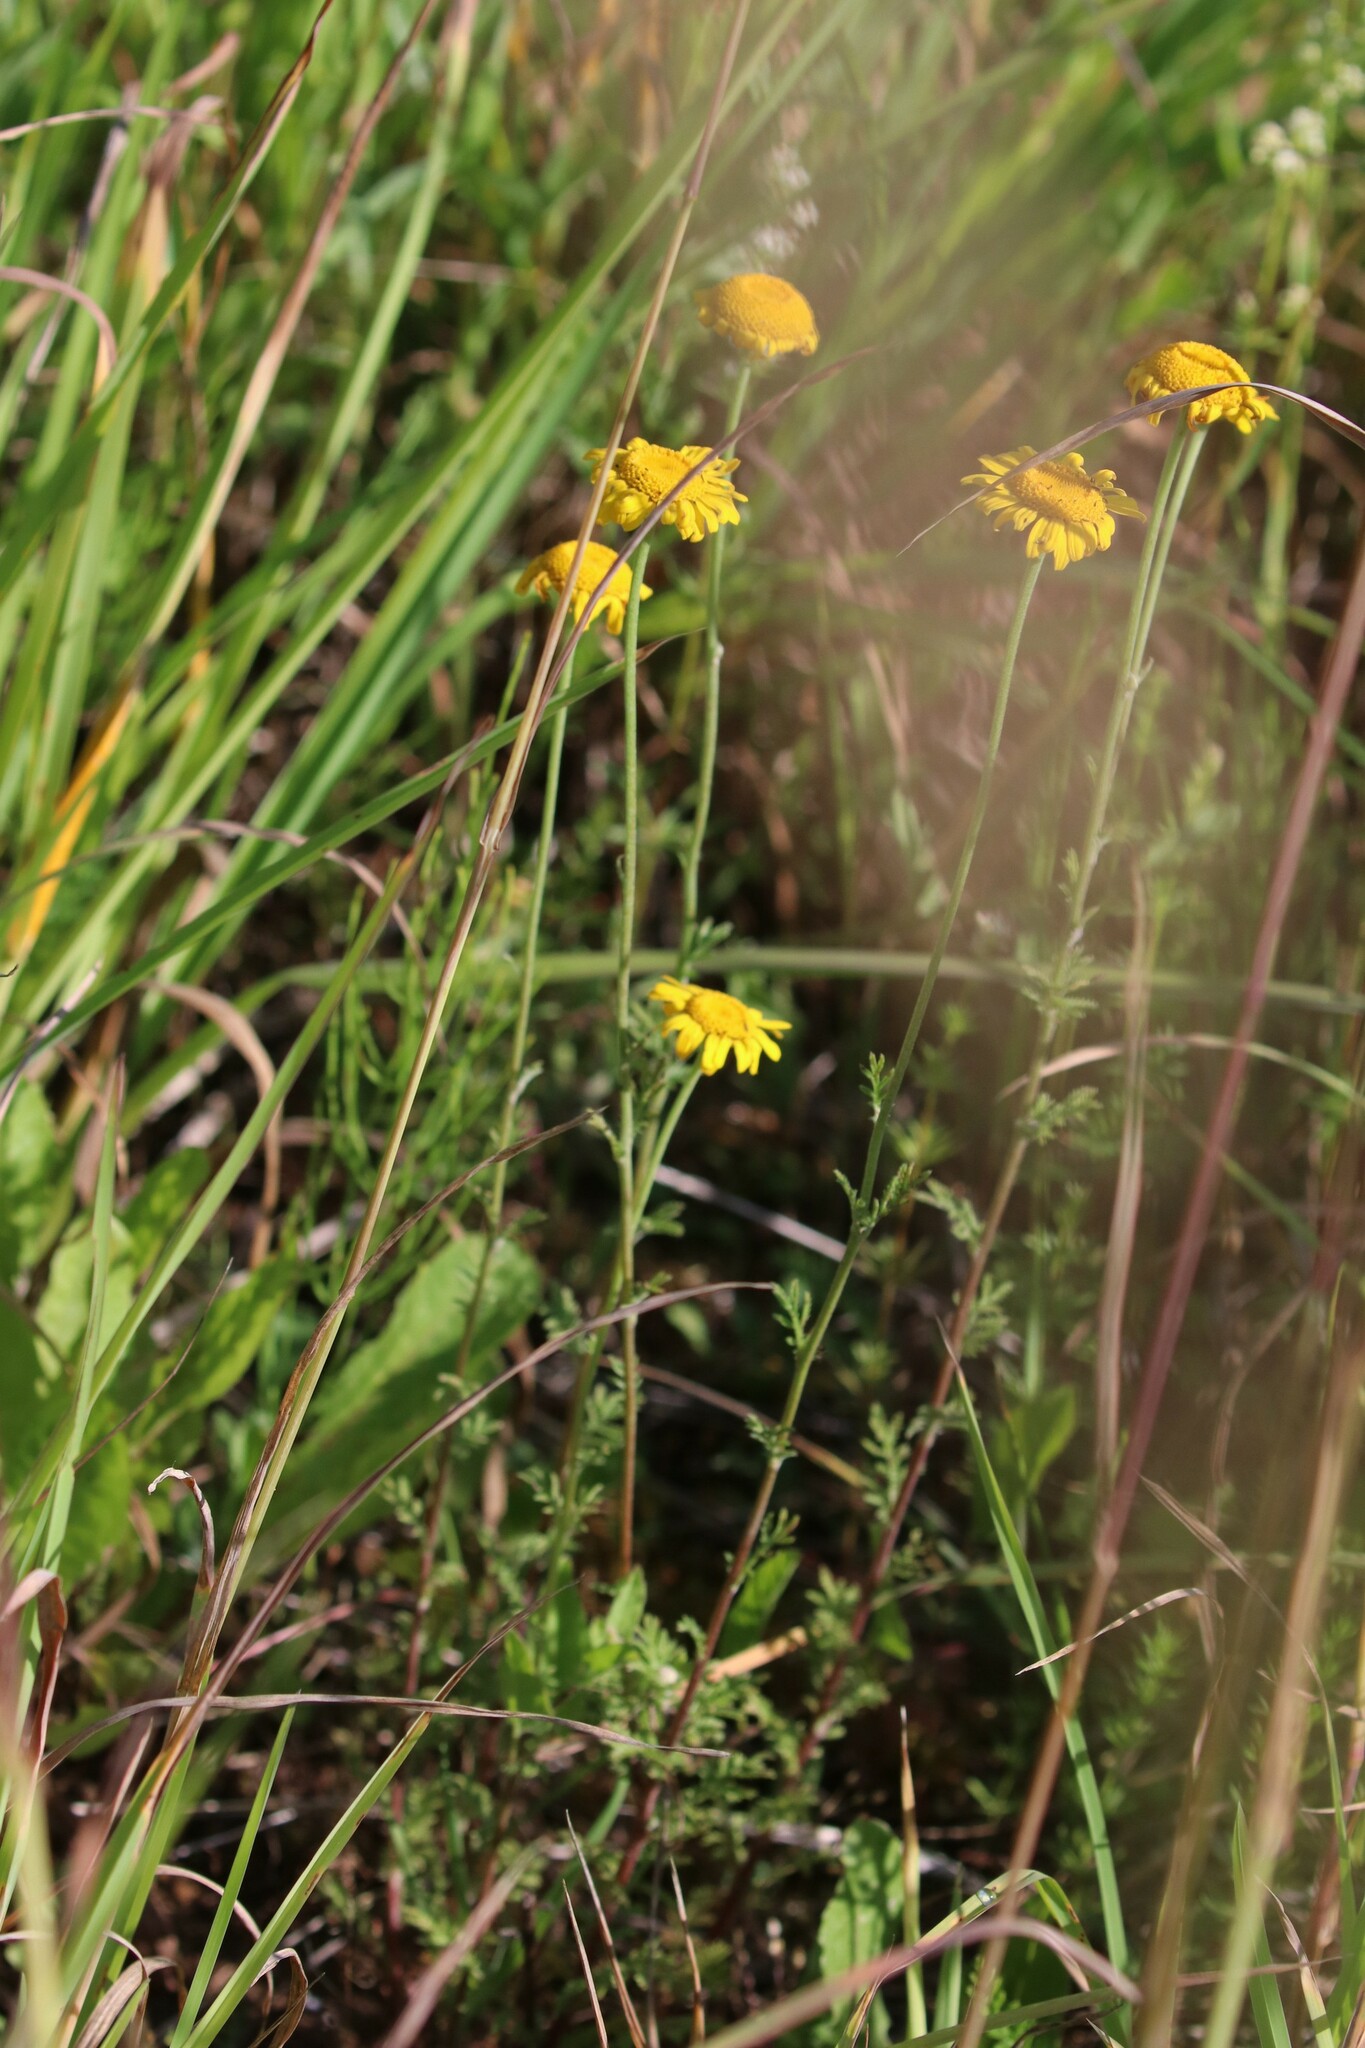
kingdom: Plantae
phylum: Tracheophyta
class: Magnoliopsida
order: Asterales
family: Asteraceae
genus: Cota
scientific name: Cota tinctoria
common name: Golden chamomile
